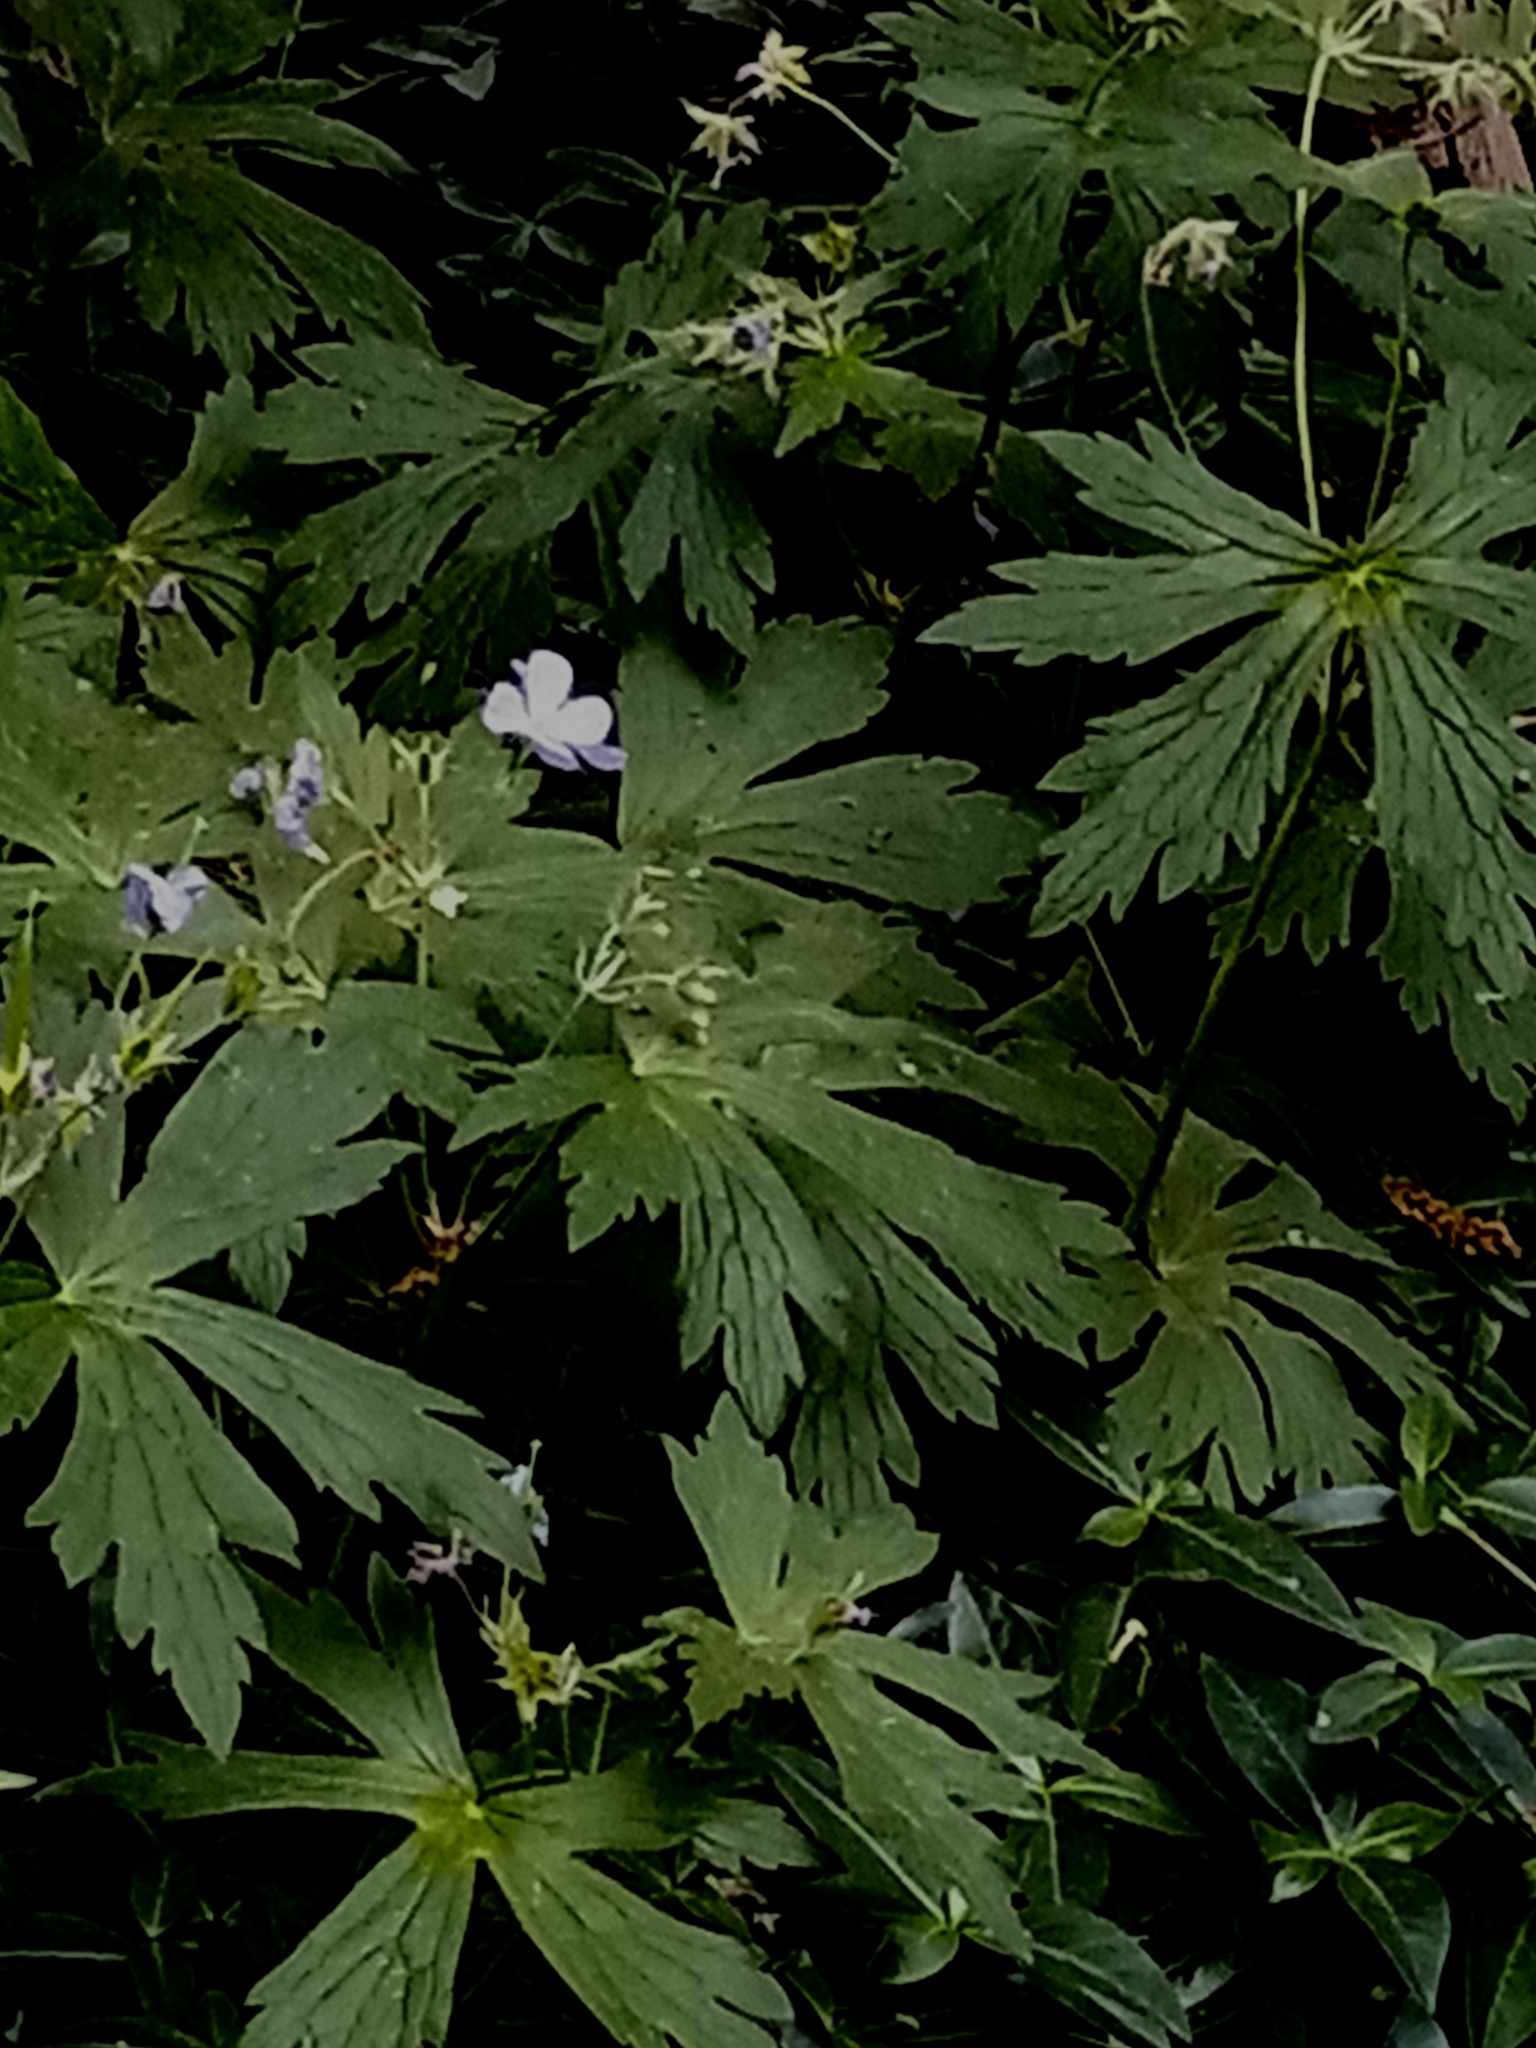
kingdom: Plantae
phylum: Tracheophyta
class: Magnoliopsida
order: Geraniales
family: Geraniaceae
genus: Geranium
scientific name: Geranium maculatum
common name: Spotted geranium
